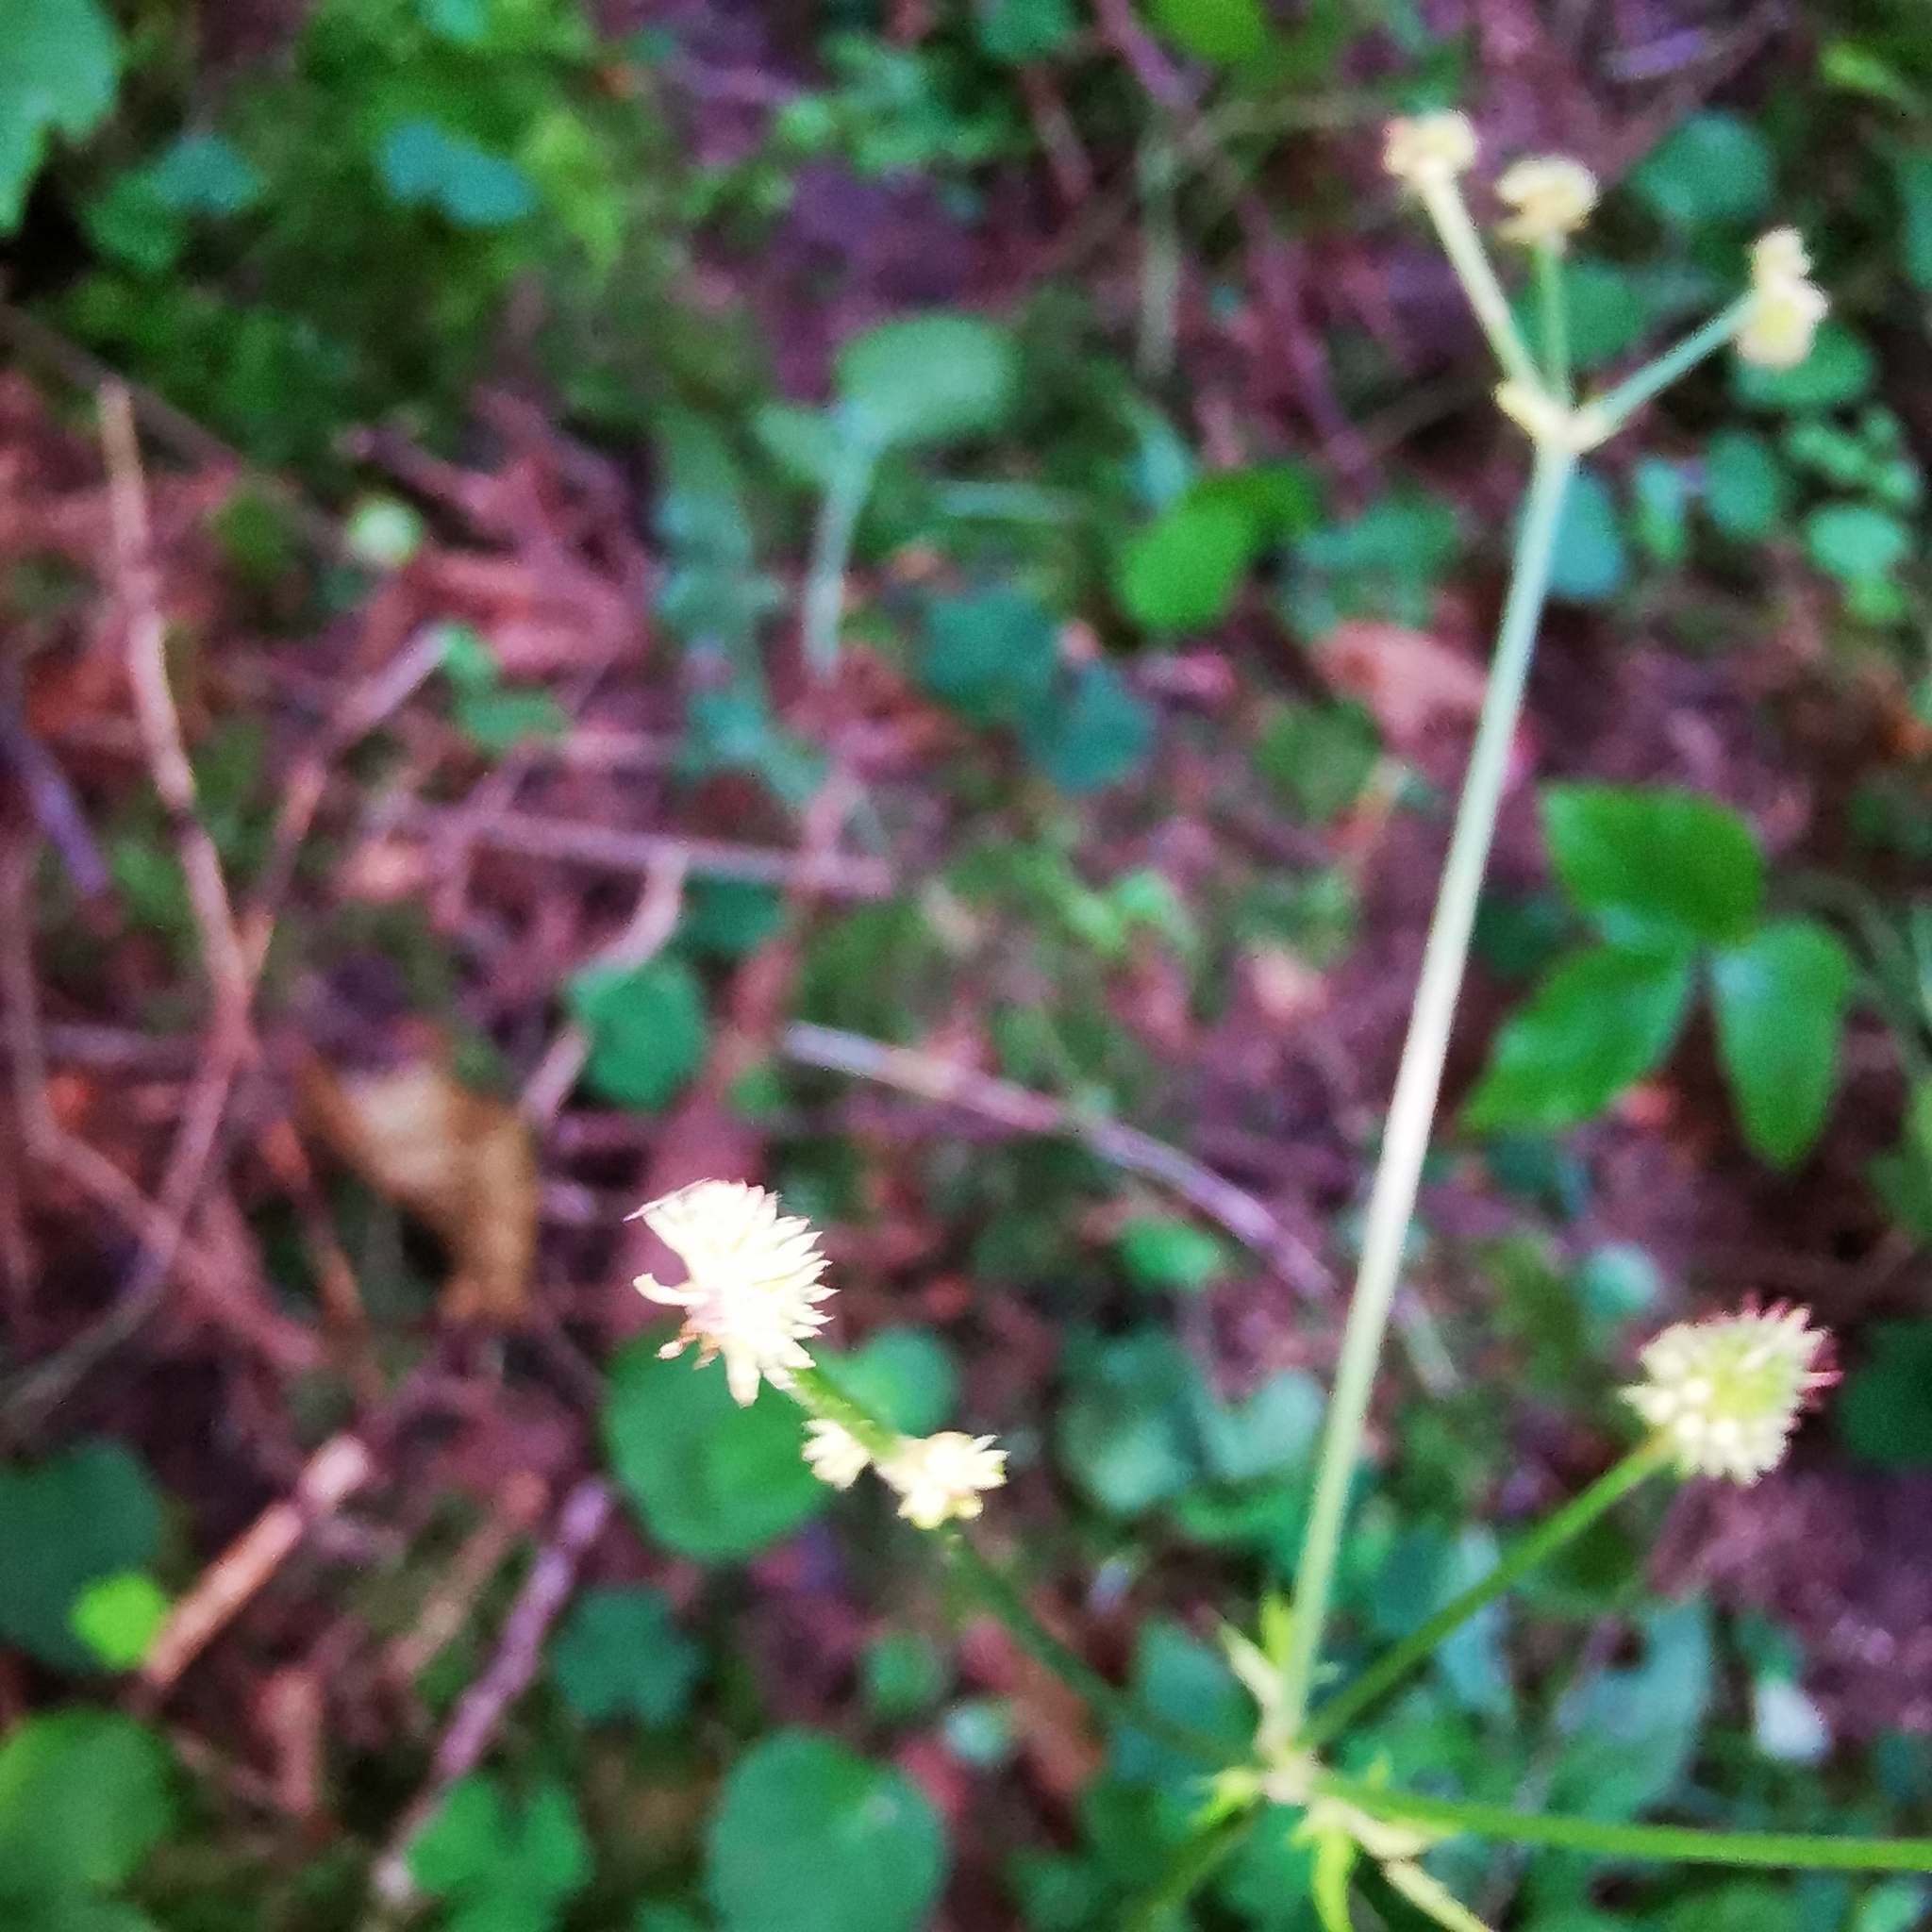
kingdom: Plantae
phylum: Tracheophyta
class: Magnoliopsida
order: Apiales
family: Apiaceae
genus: Sanicula
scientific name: Sanicula europaea
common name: Sanicle
